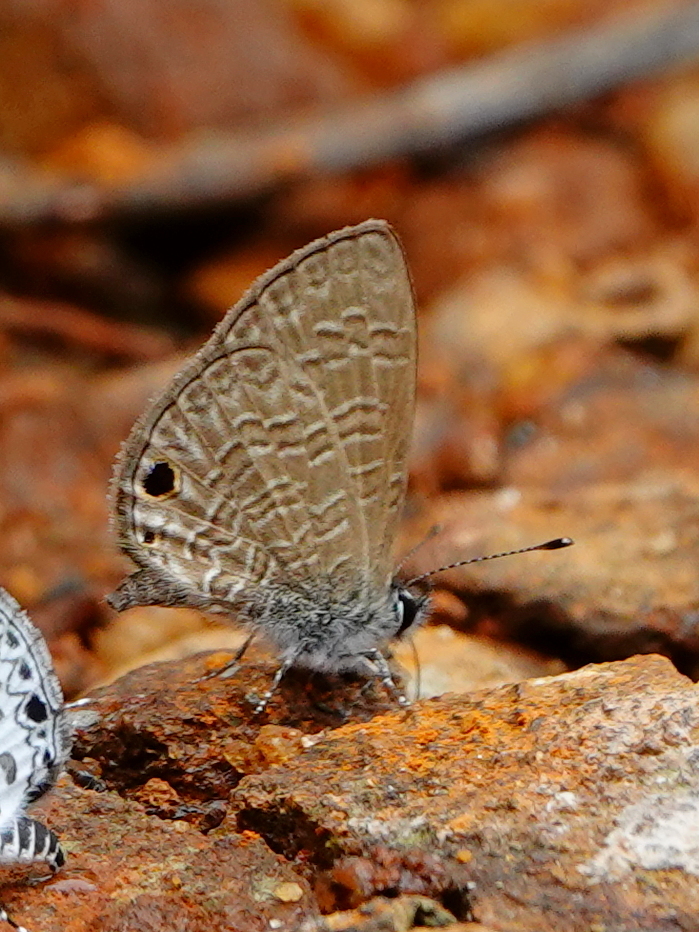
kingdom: Animalia
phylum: Arthropoda
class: Insecta
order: Lepidoptera
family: Lycaenidae
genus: Prosotas
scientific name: Prosotas dubiosa
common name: Tailless lineblue
